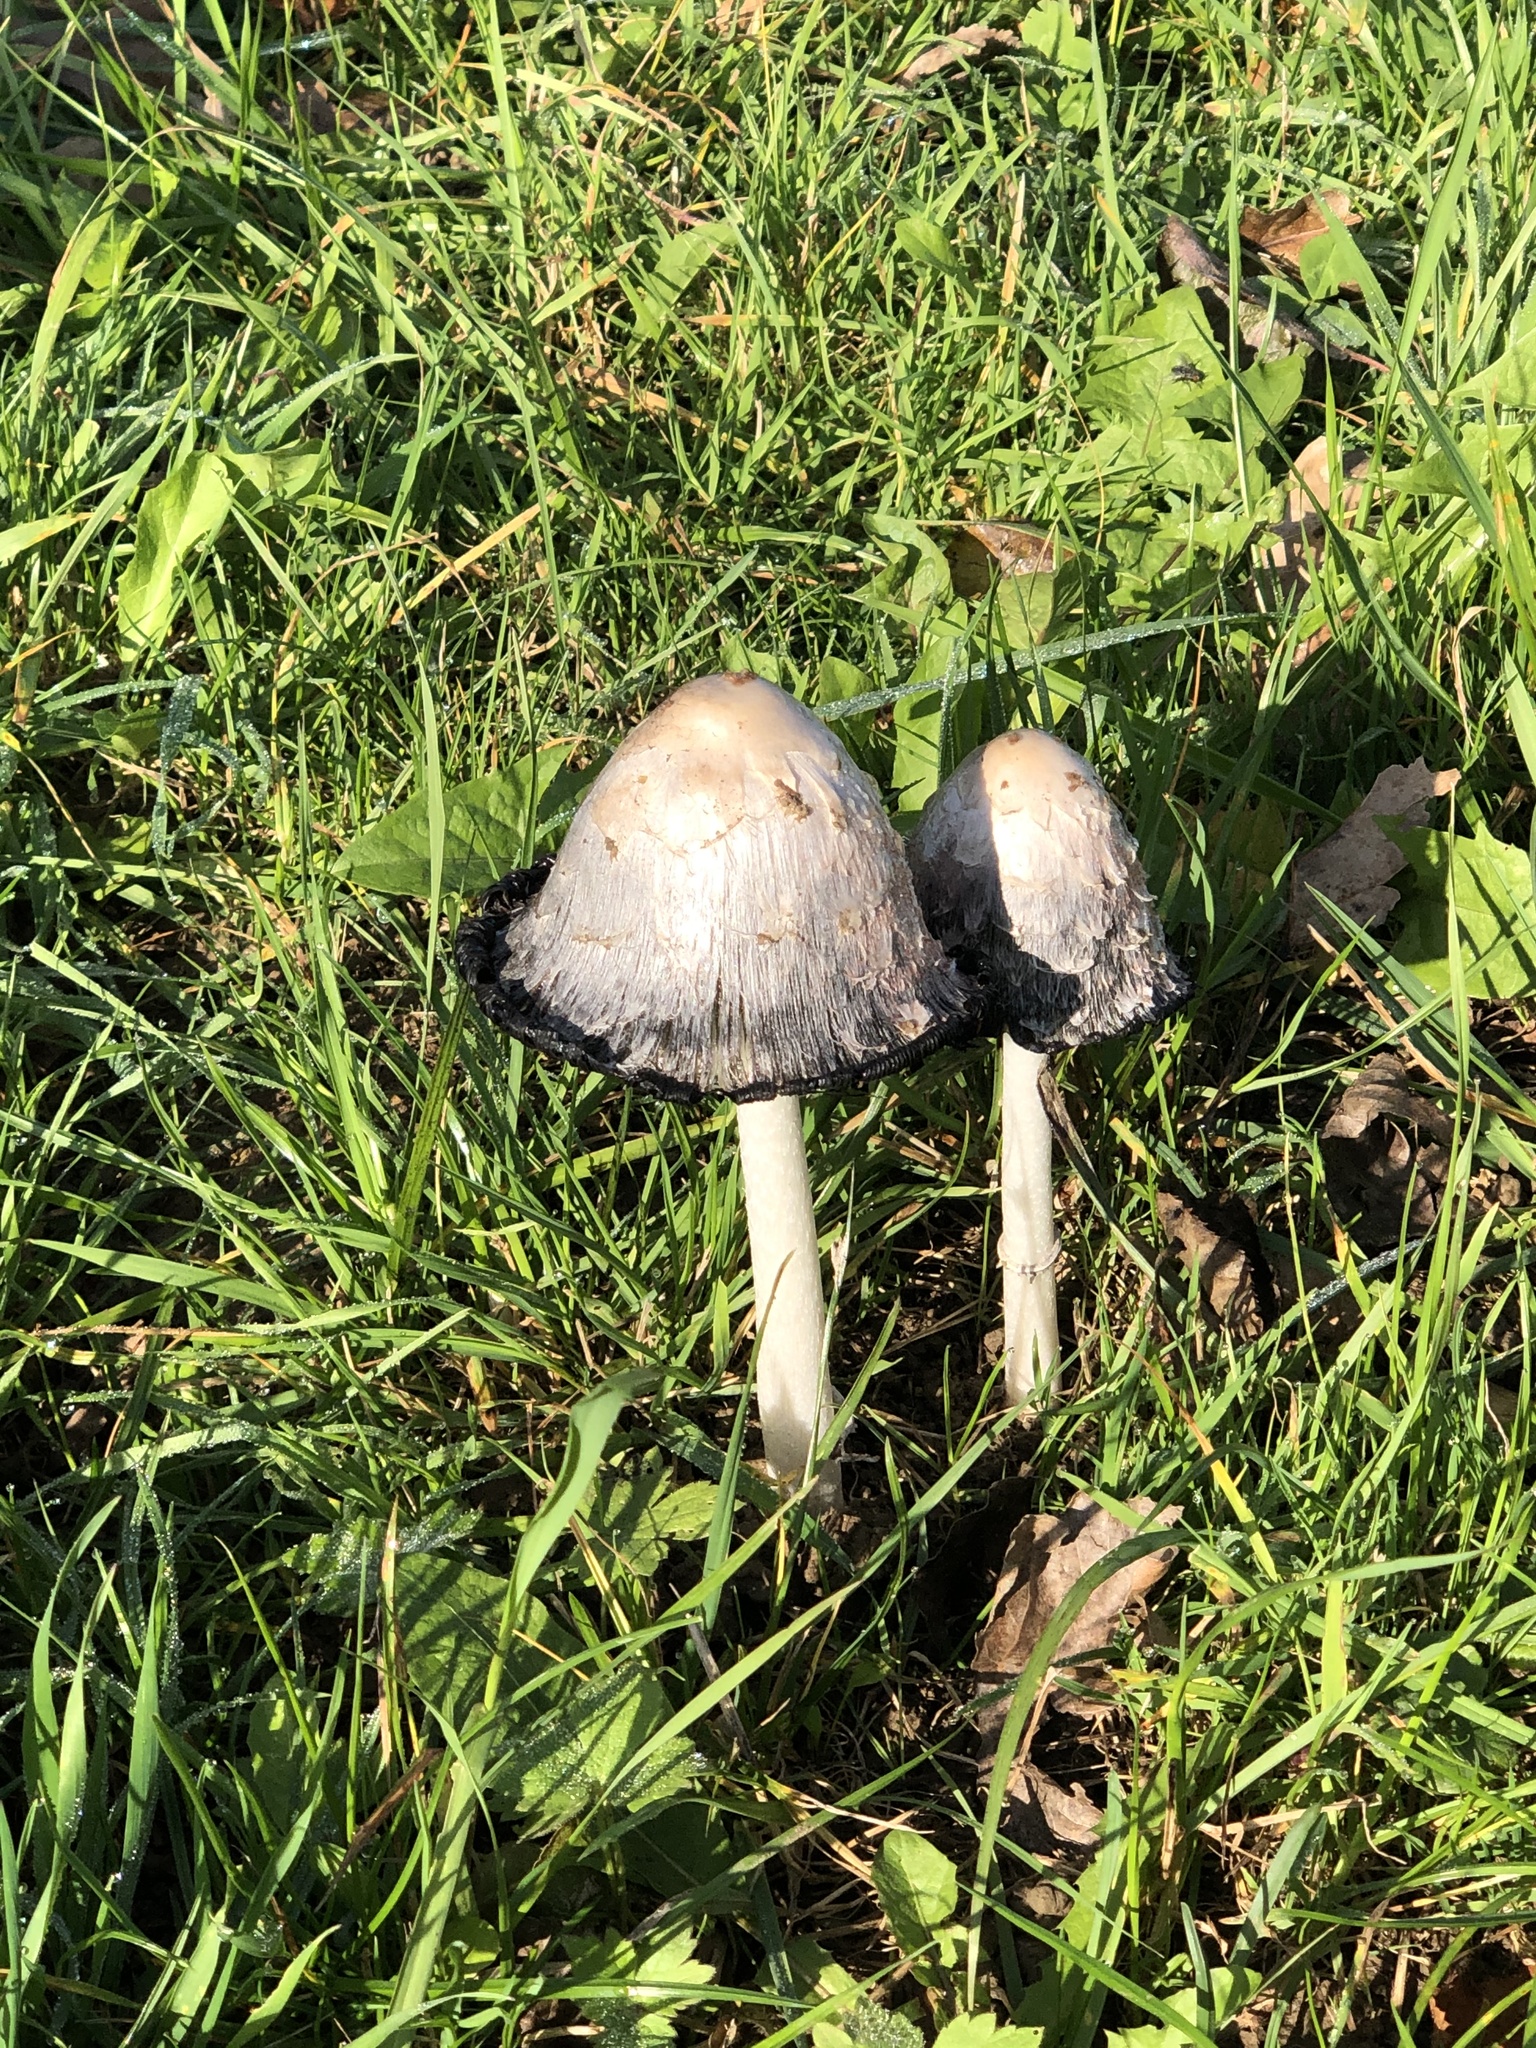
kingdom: Fungi
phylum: Basidiomycota
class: Agaricomycetes
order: Agaricales
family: Agaricaceae
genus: Coprinus
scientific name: Coprinus comatus
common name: Lawyer's wig
